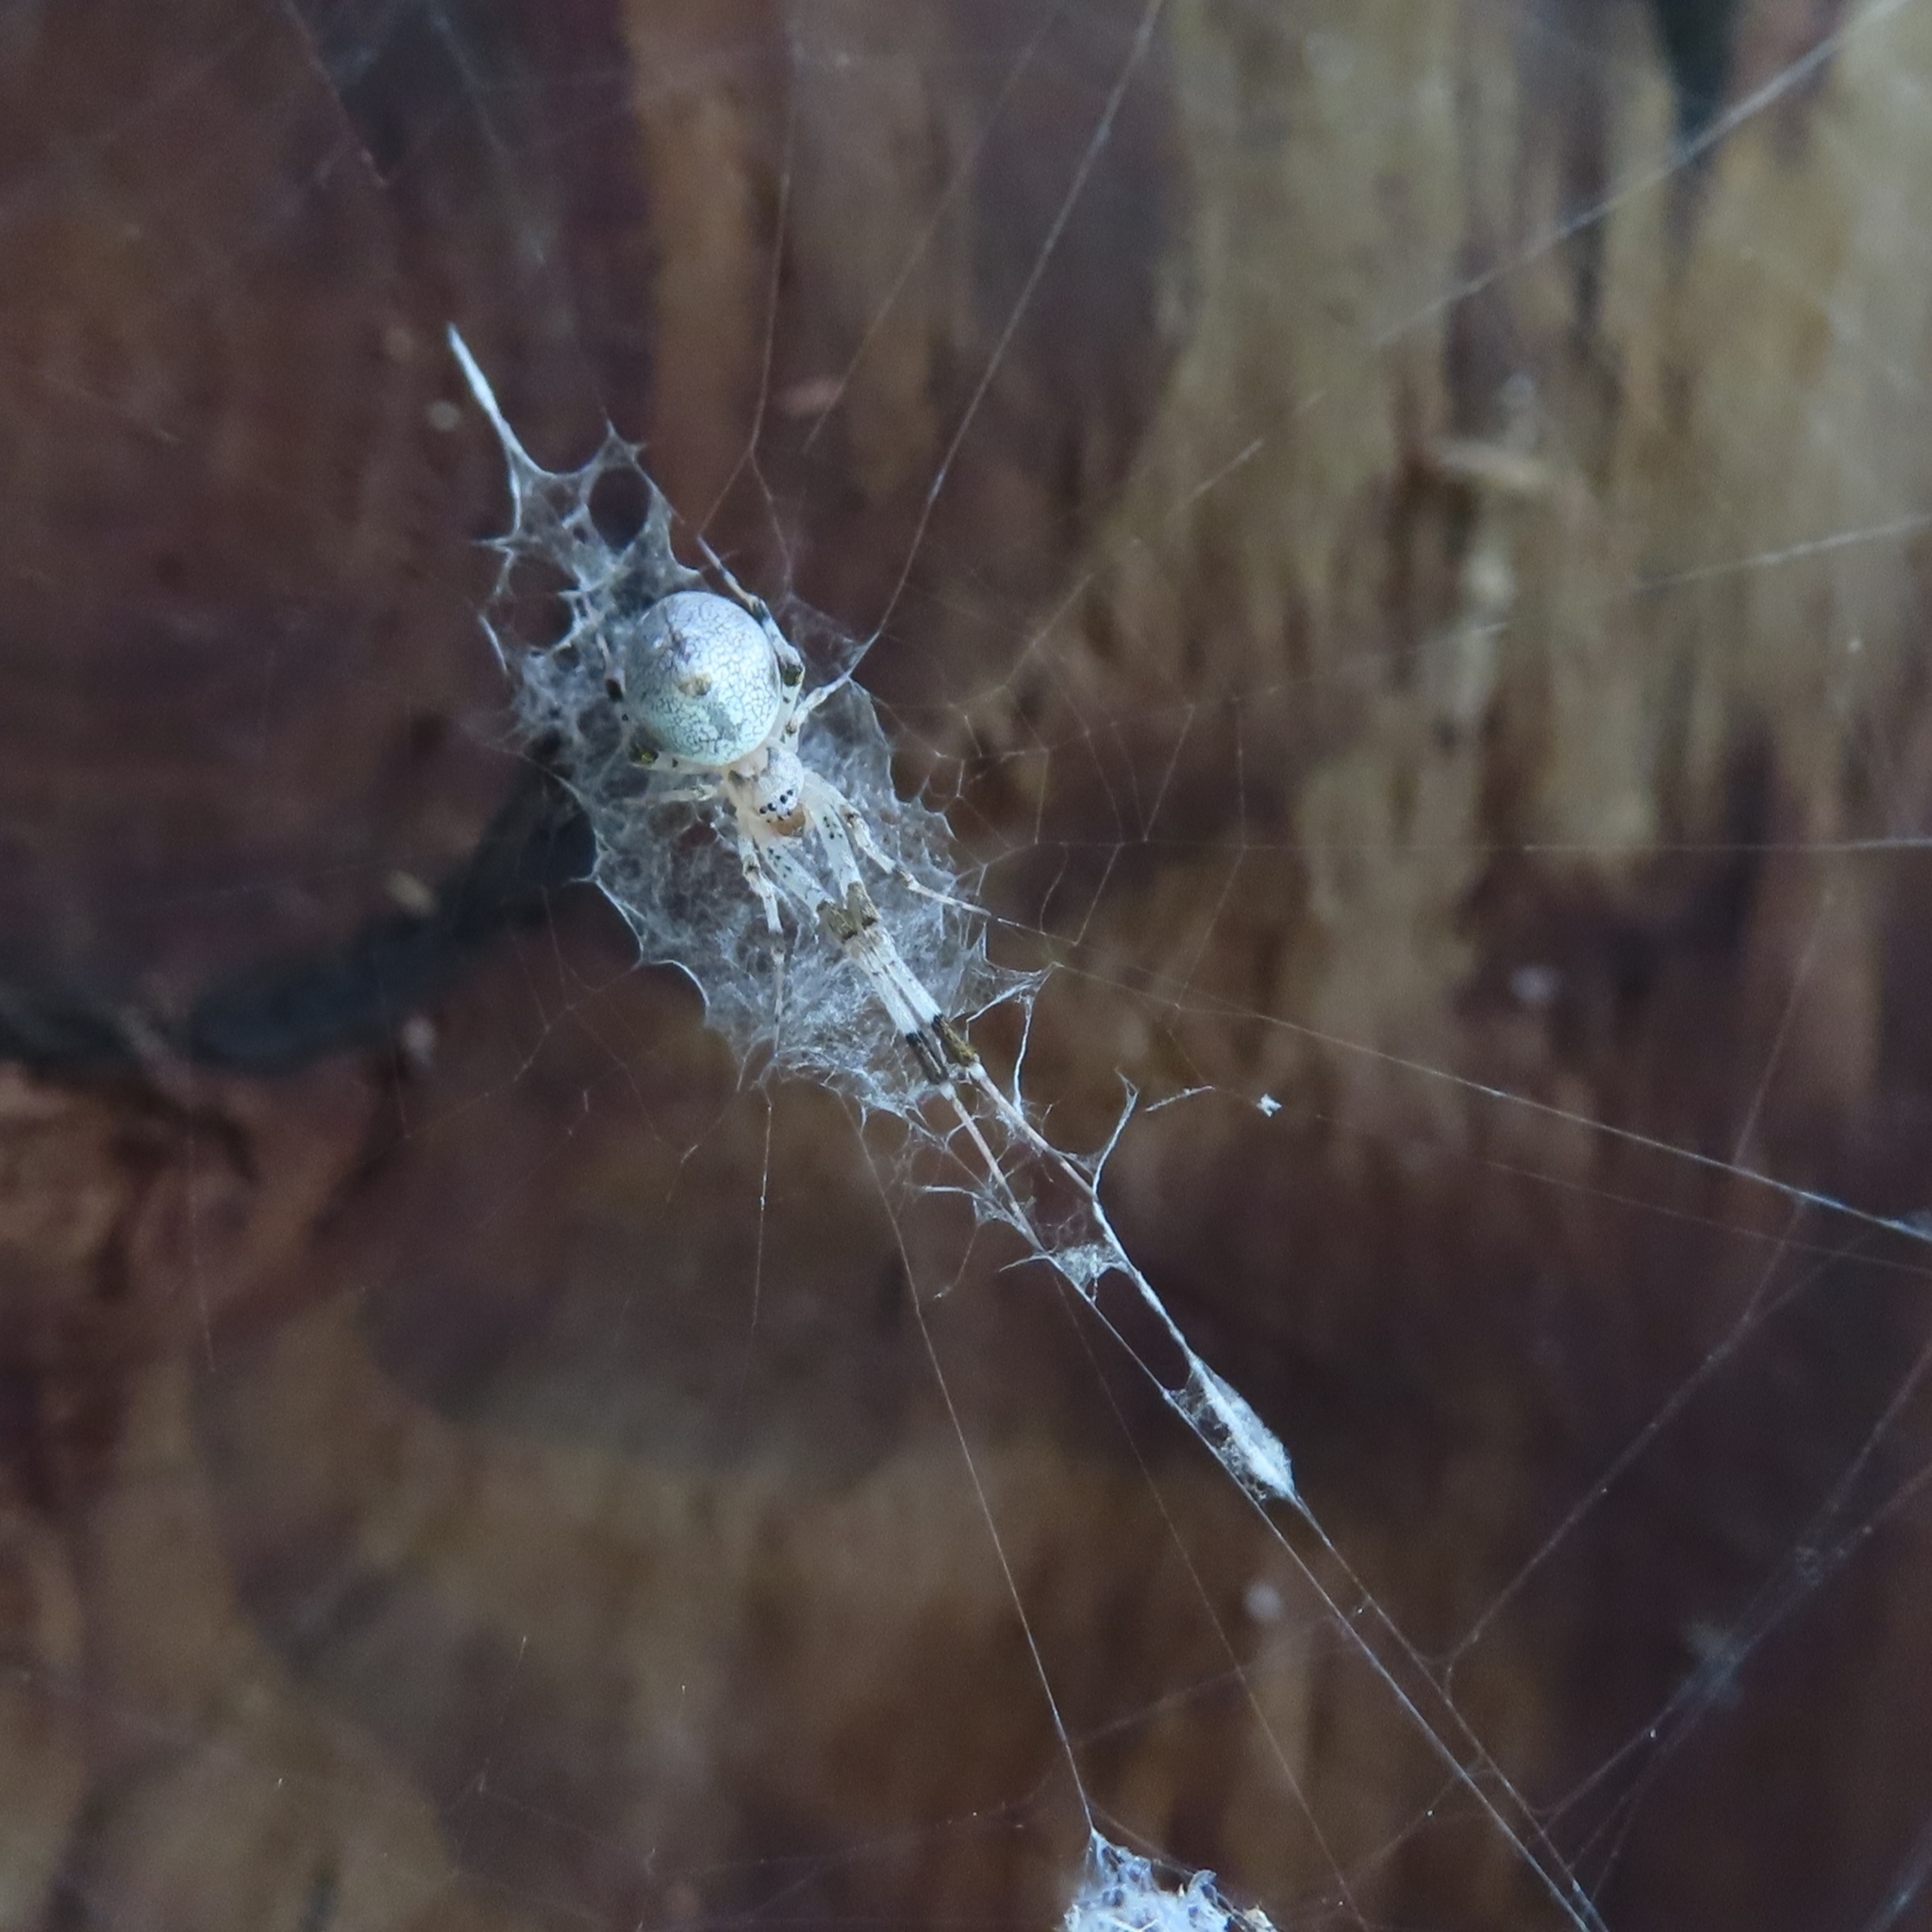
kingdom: Animalia
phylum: Arthropoda
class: Arachnida
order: Araneae
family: Uloboridae
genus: Zosis
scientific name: Zosis geniculata
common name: Hackled orb weavers
